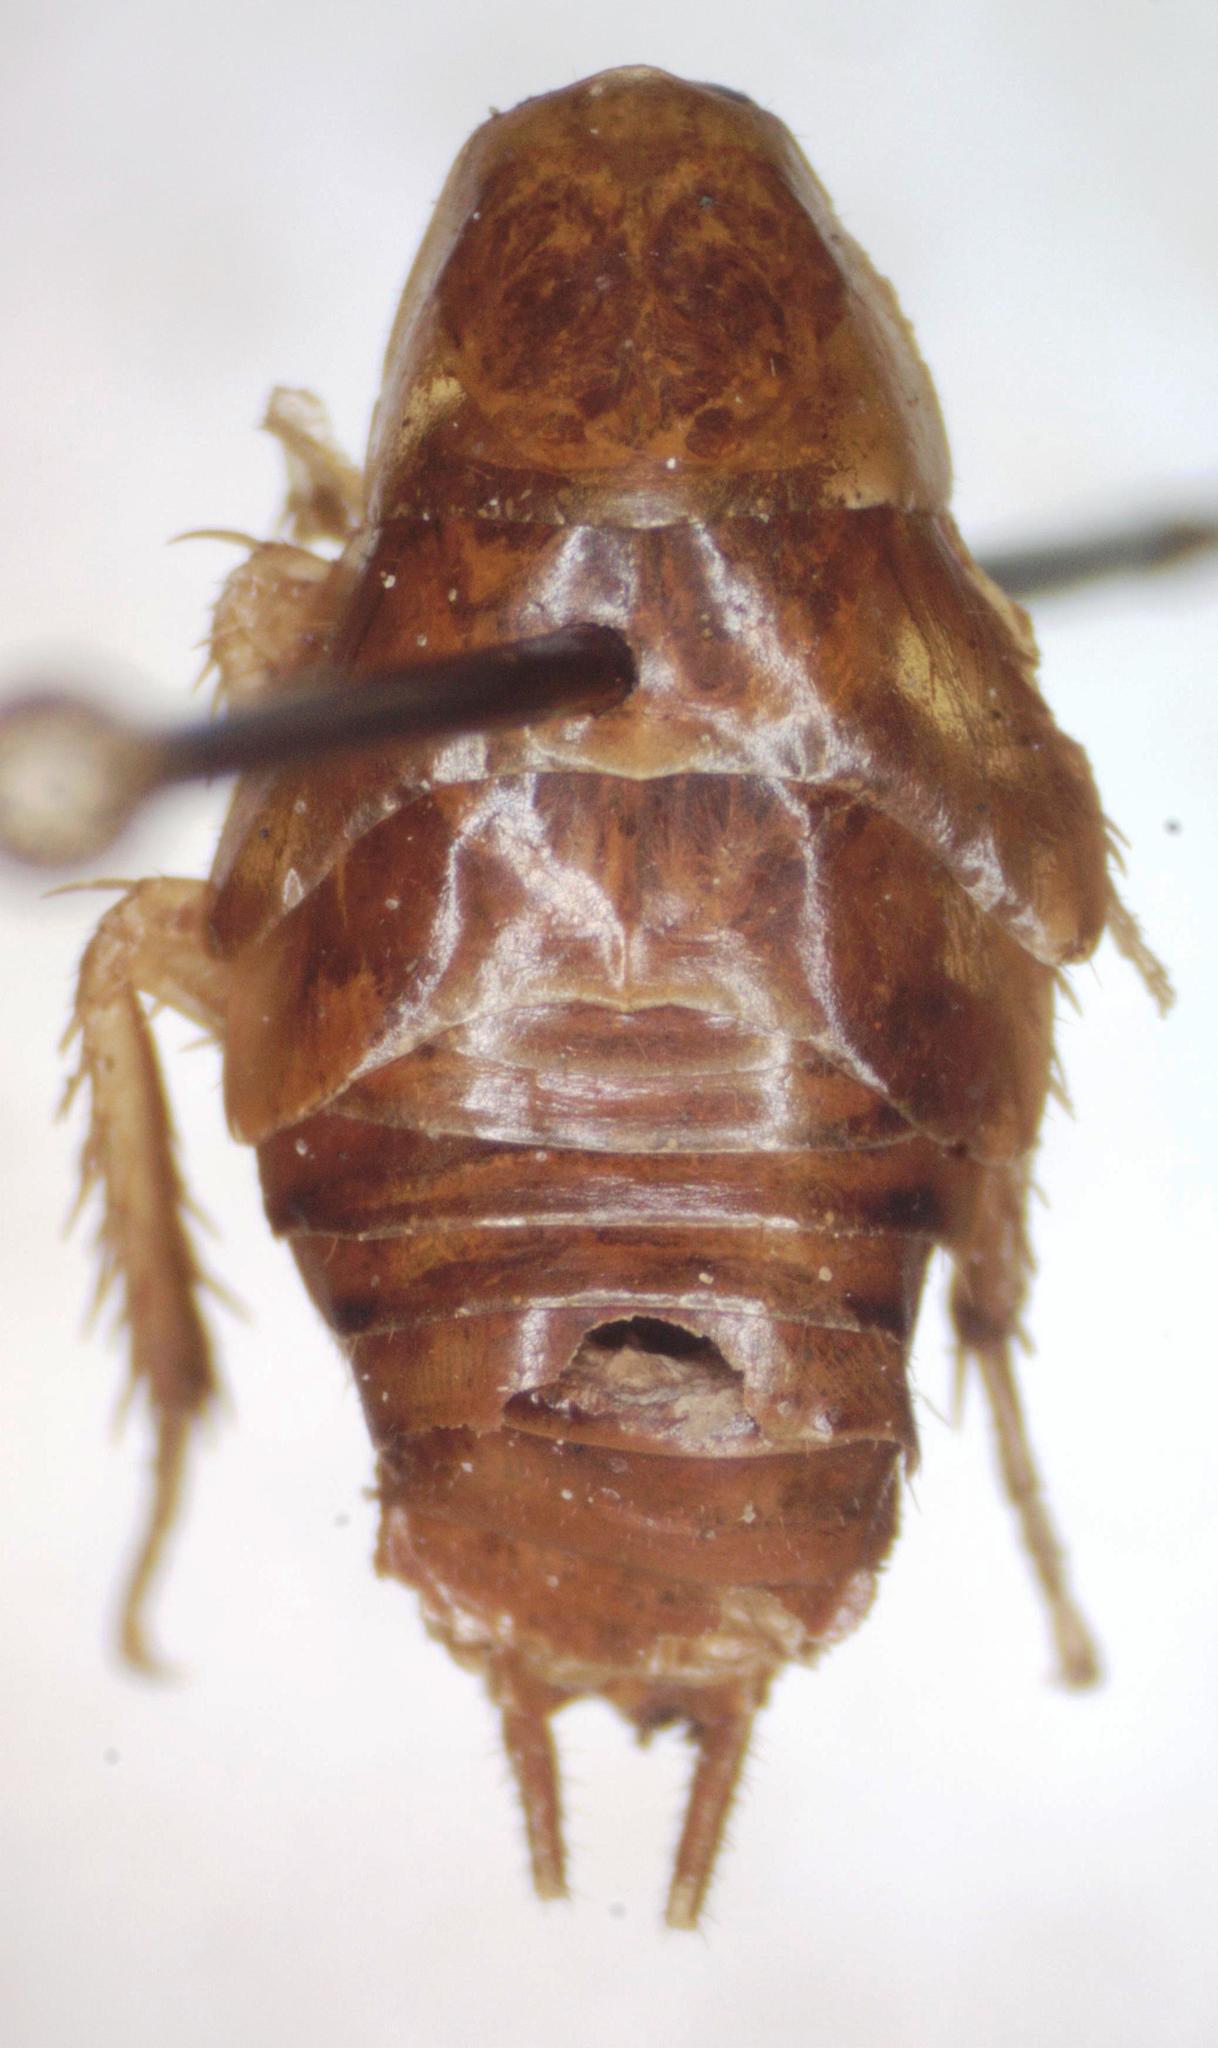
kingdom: Animalia
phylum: Arthropoda
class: Insecta
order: Blattodea
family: Ectobiidae
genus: Riatia
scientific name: Riatia fulgida
